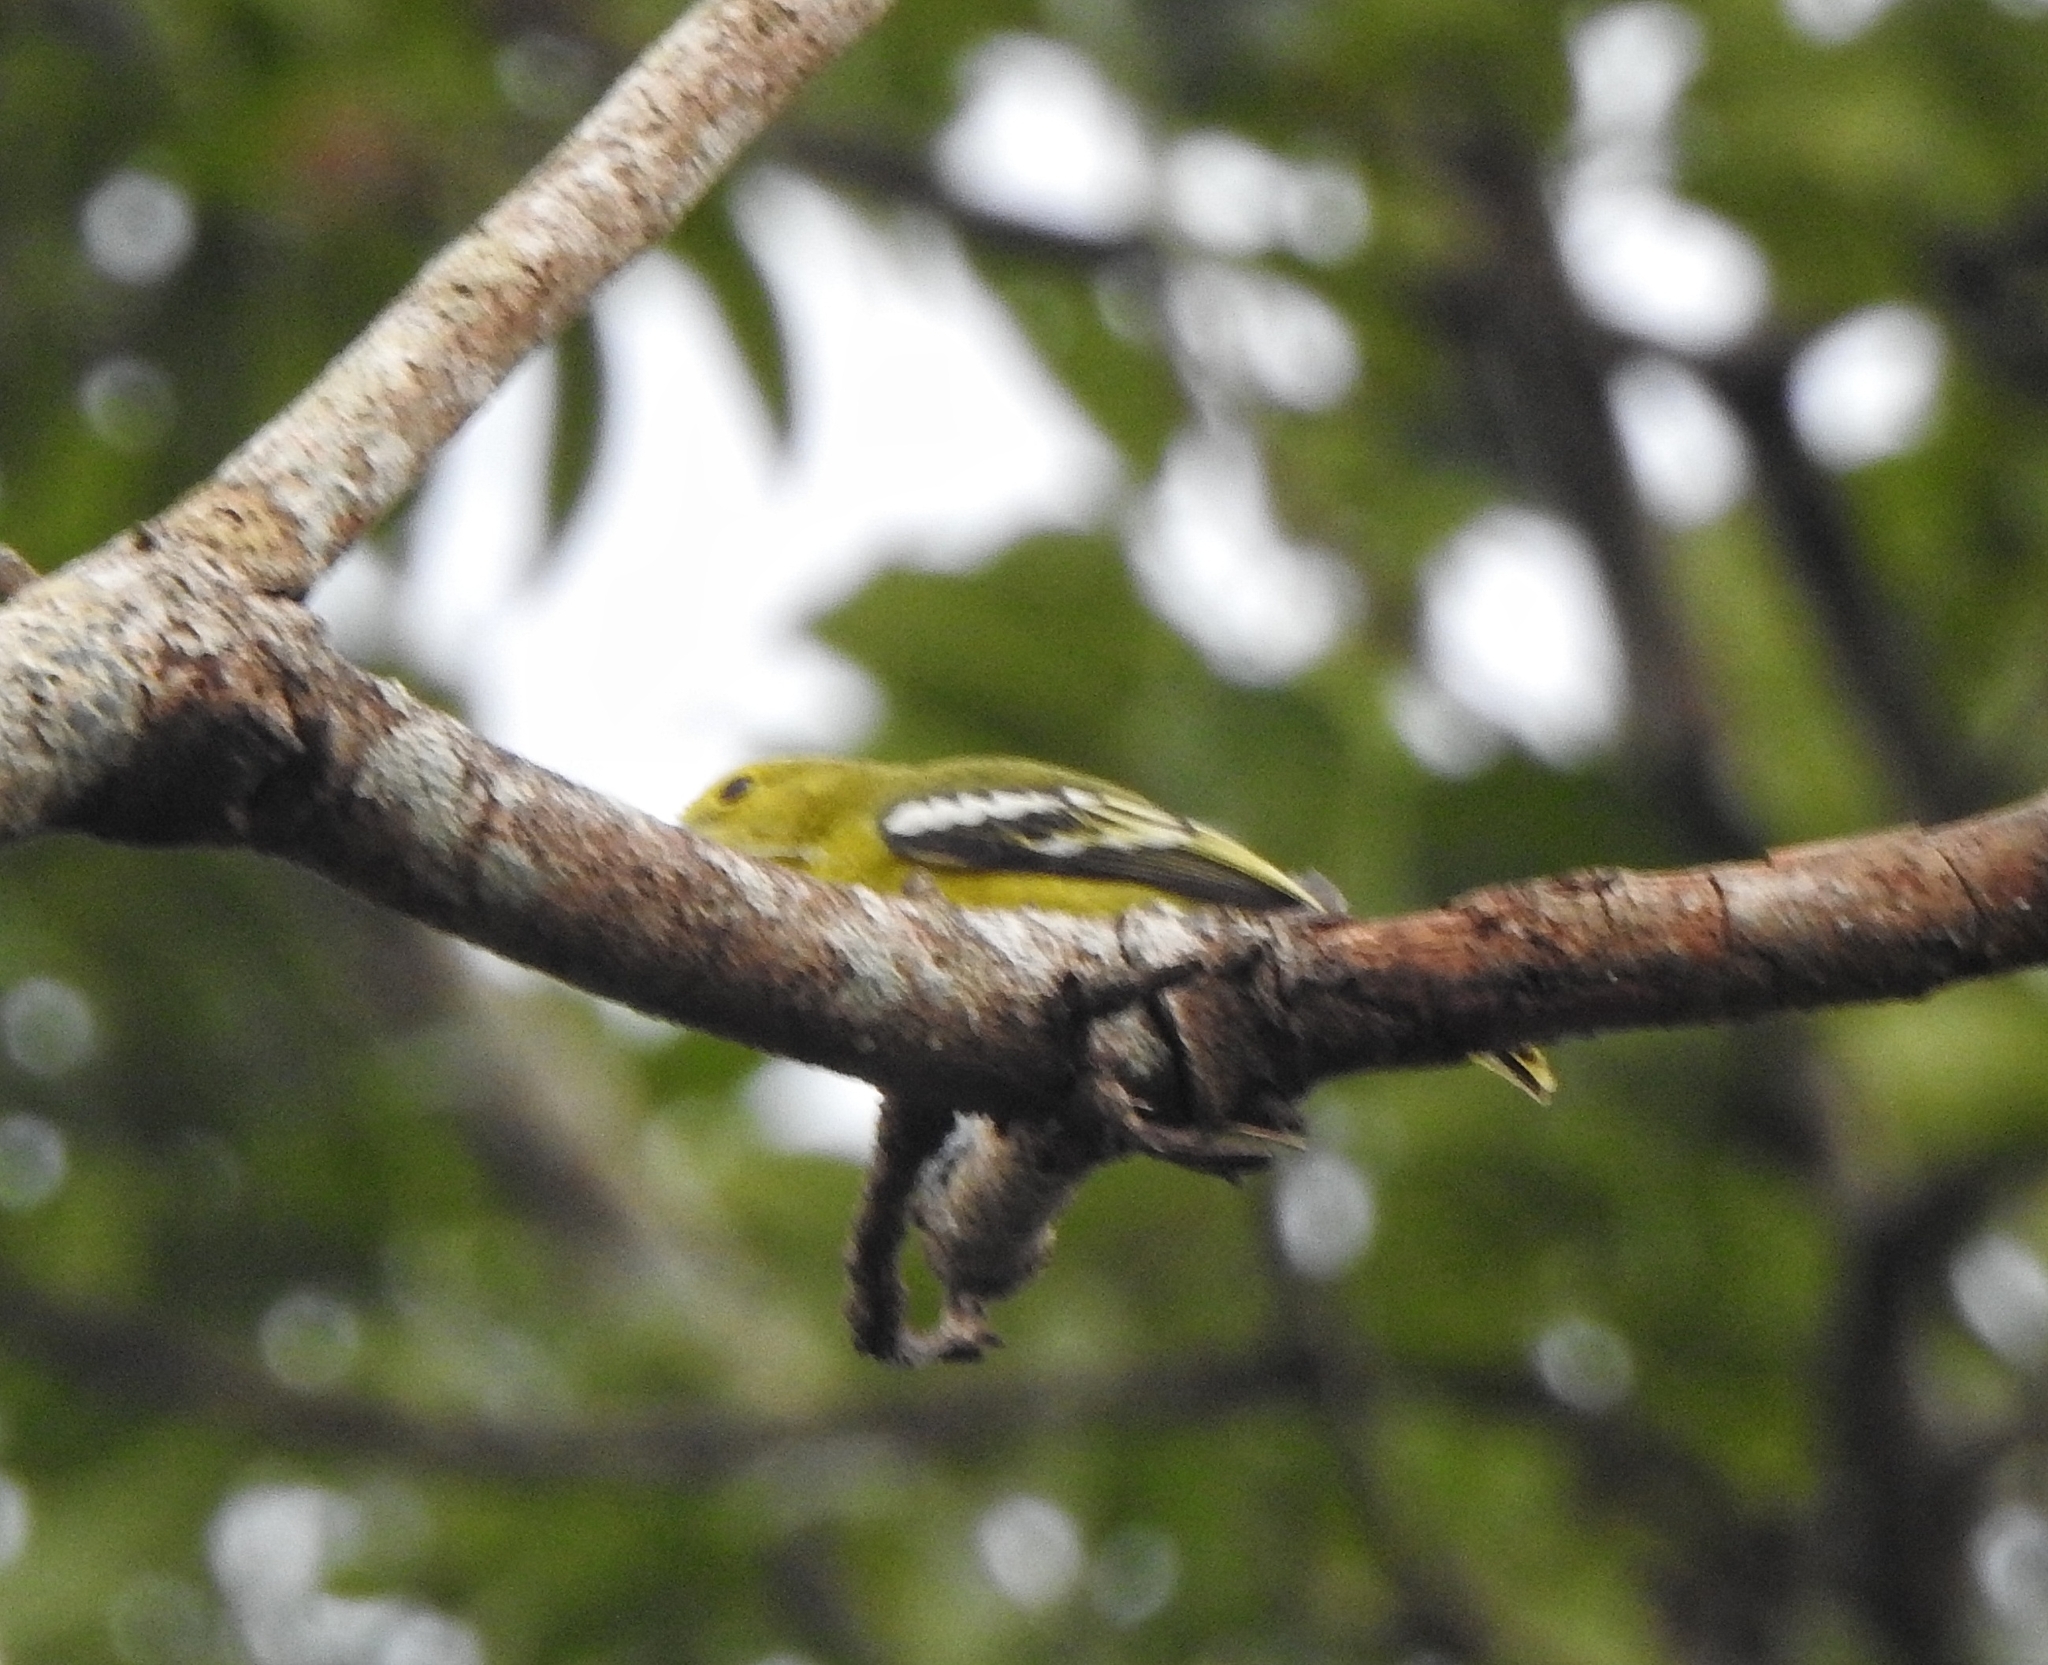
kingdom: Animalia
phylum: Chordata
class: Aves
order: Passeriformes
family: Aegithinidae
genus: Aegithina
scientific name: Aegithina tiphia
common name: Common iora
